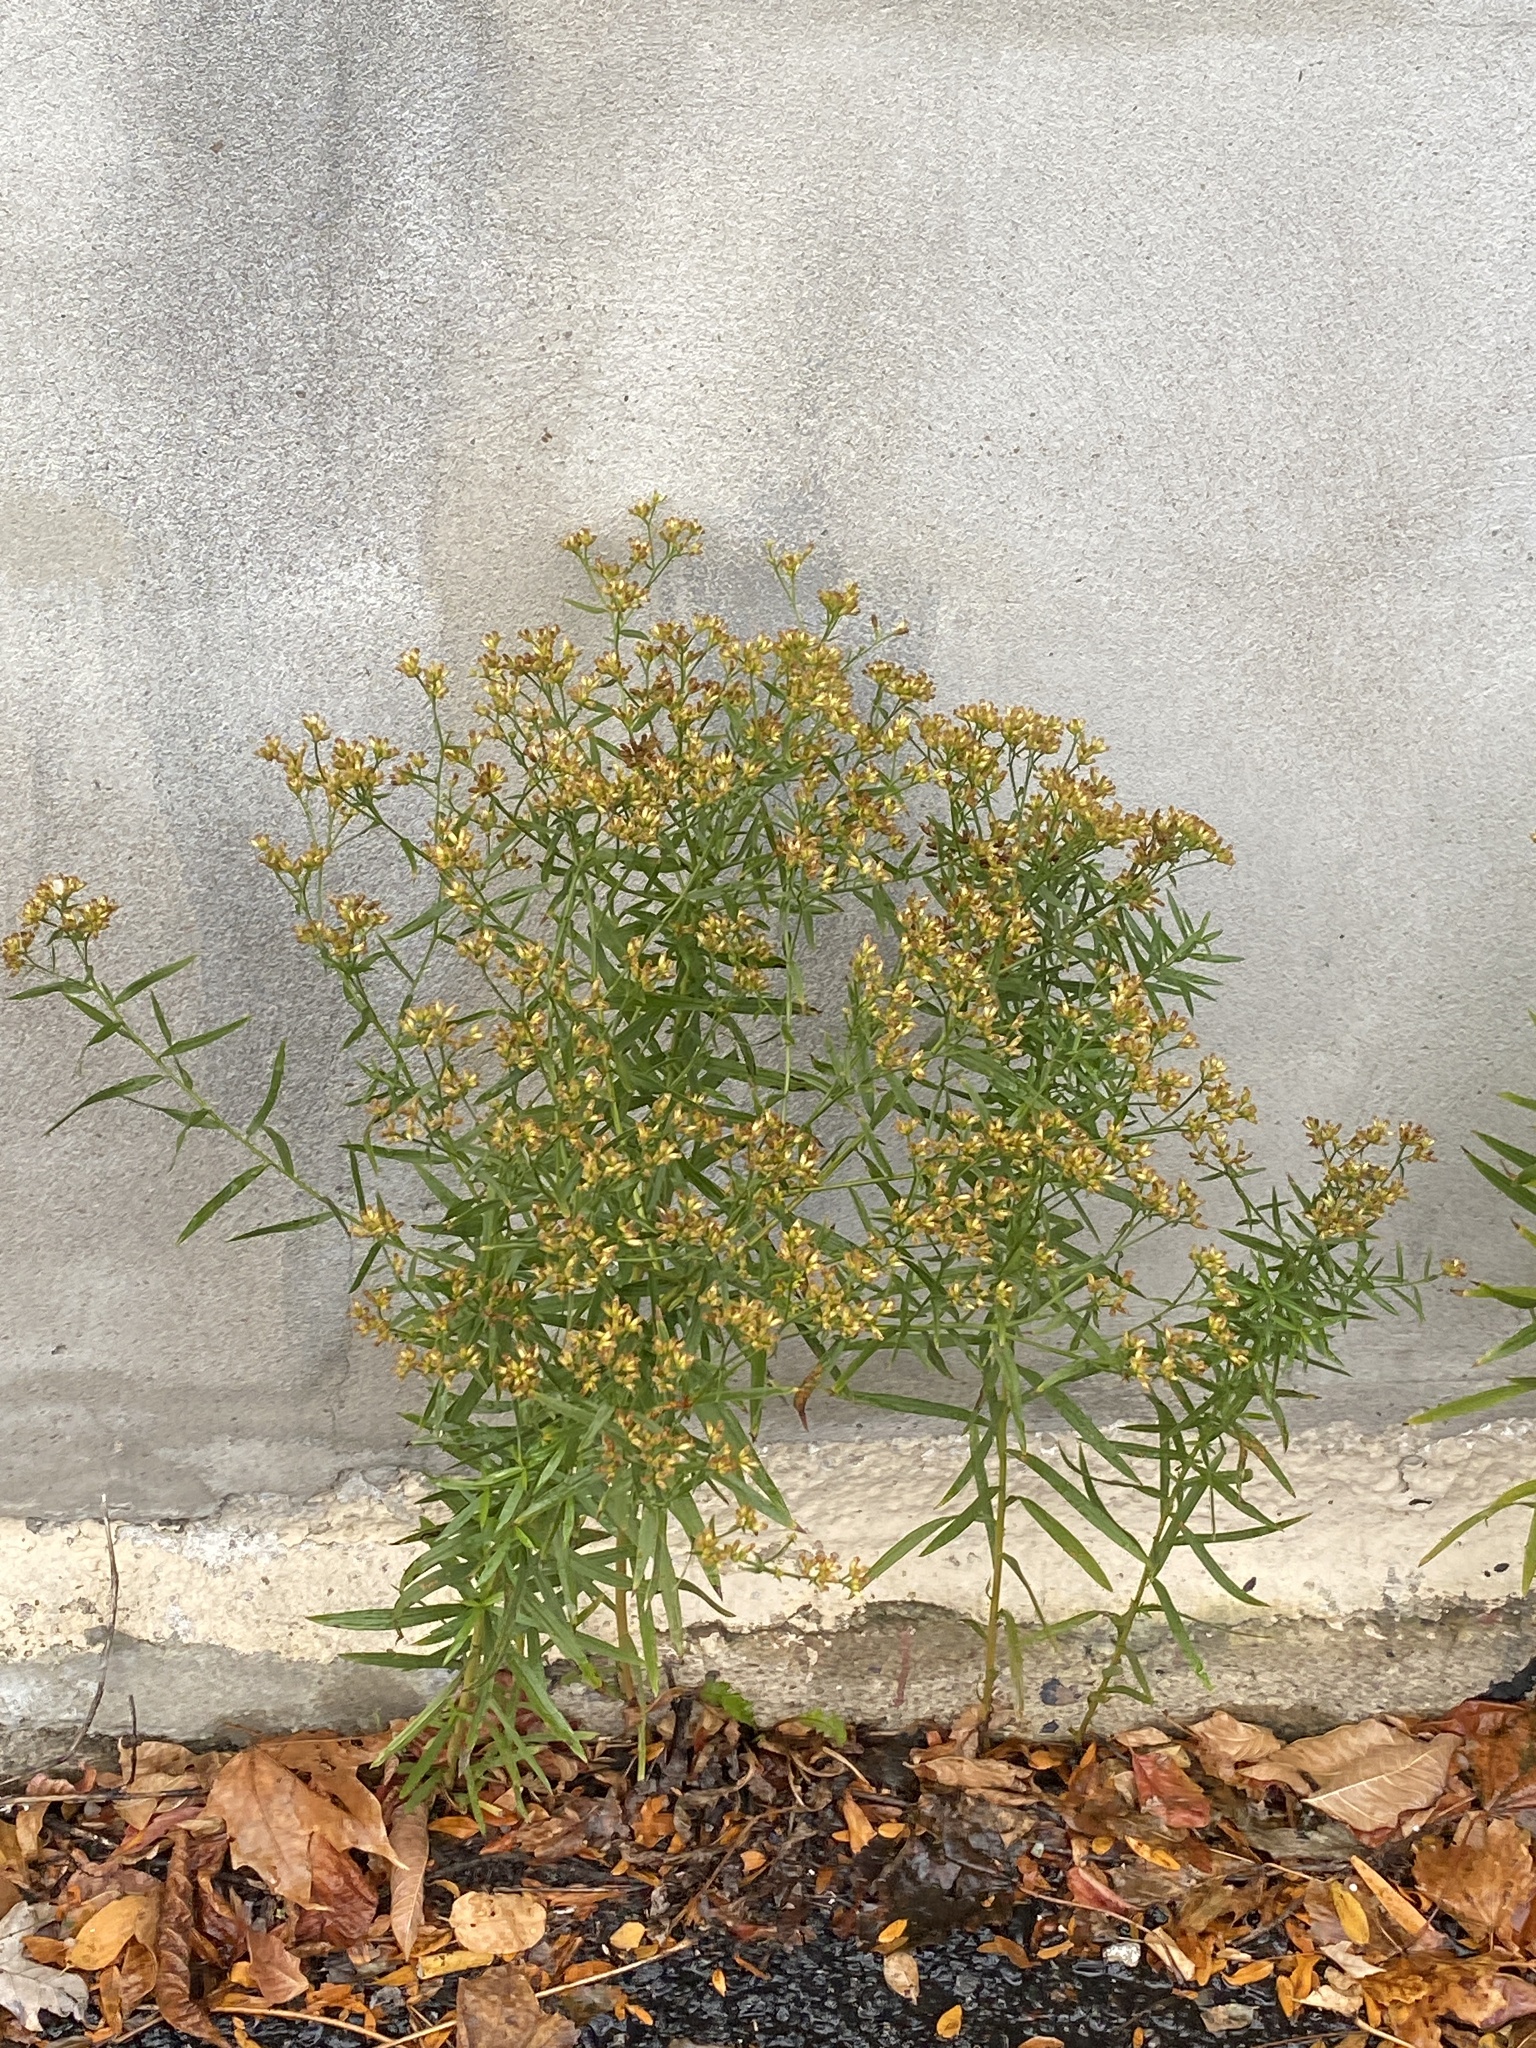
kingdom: Plantae
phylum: Tracheophyta
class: Magnoliopsida
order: Asterales
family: Asteraceae
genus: Euthamia
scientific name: Euthamia graminifolia
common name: Common goldentop
